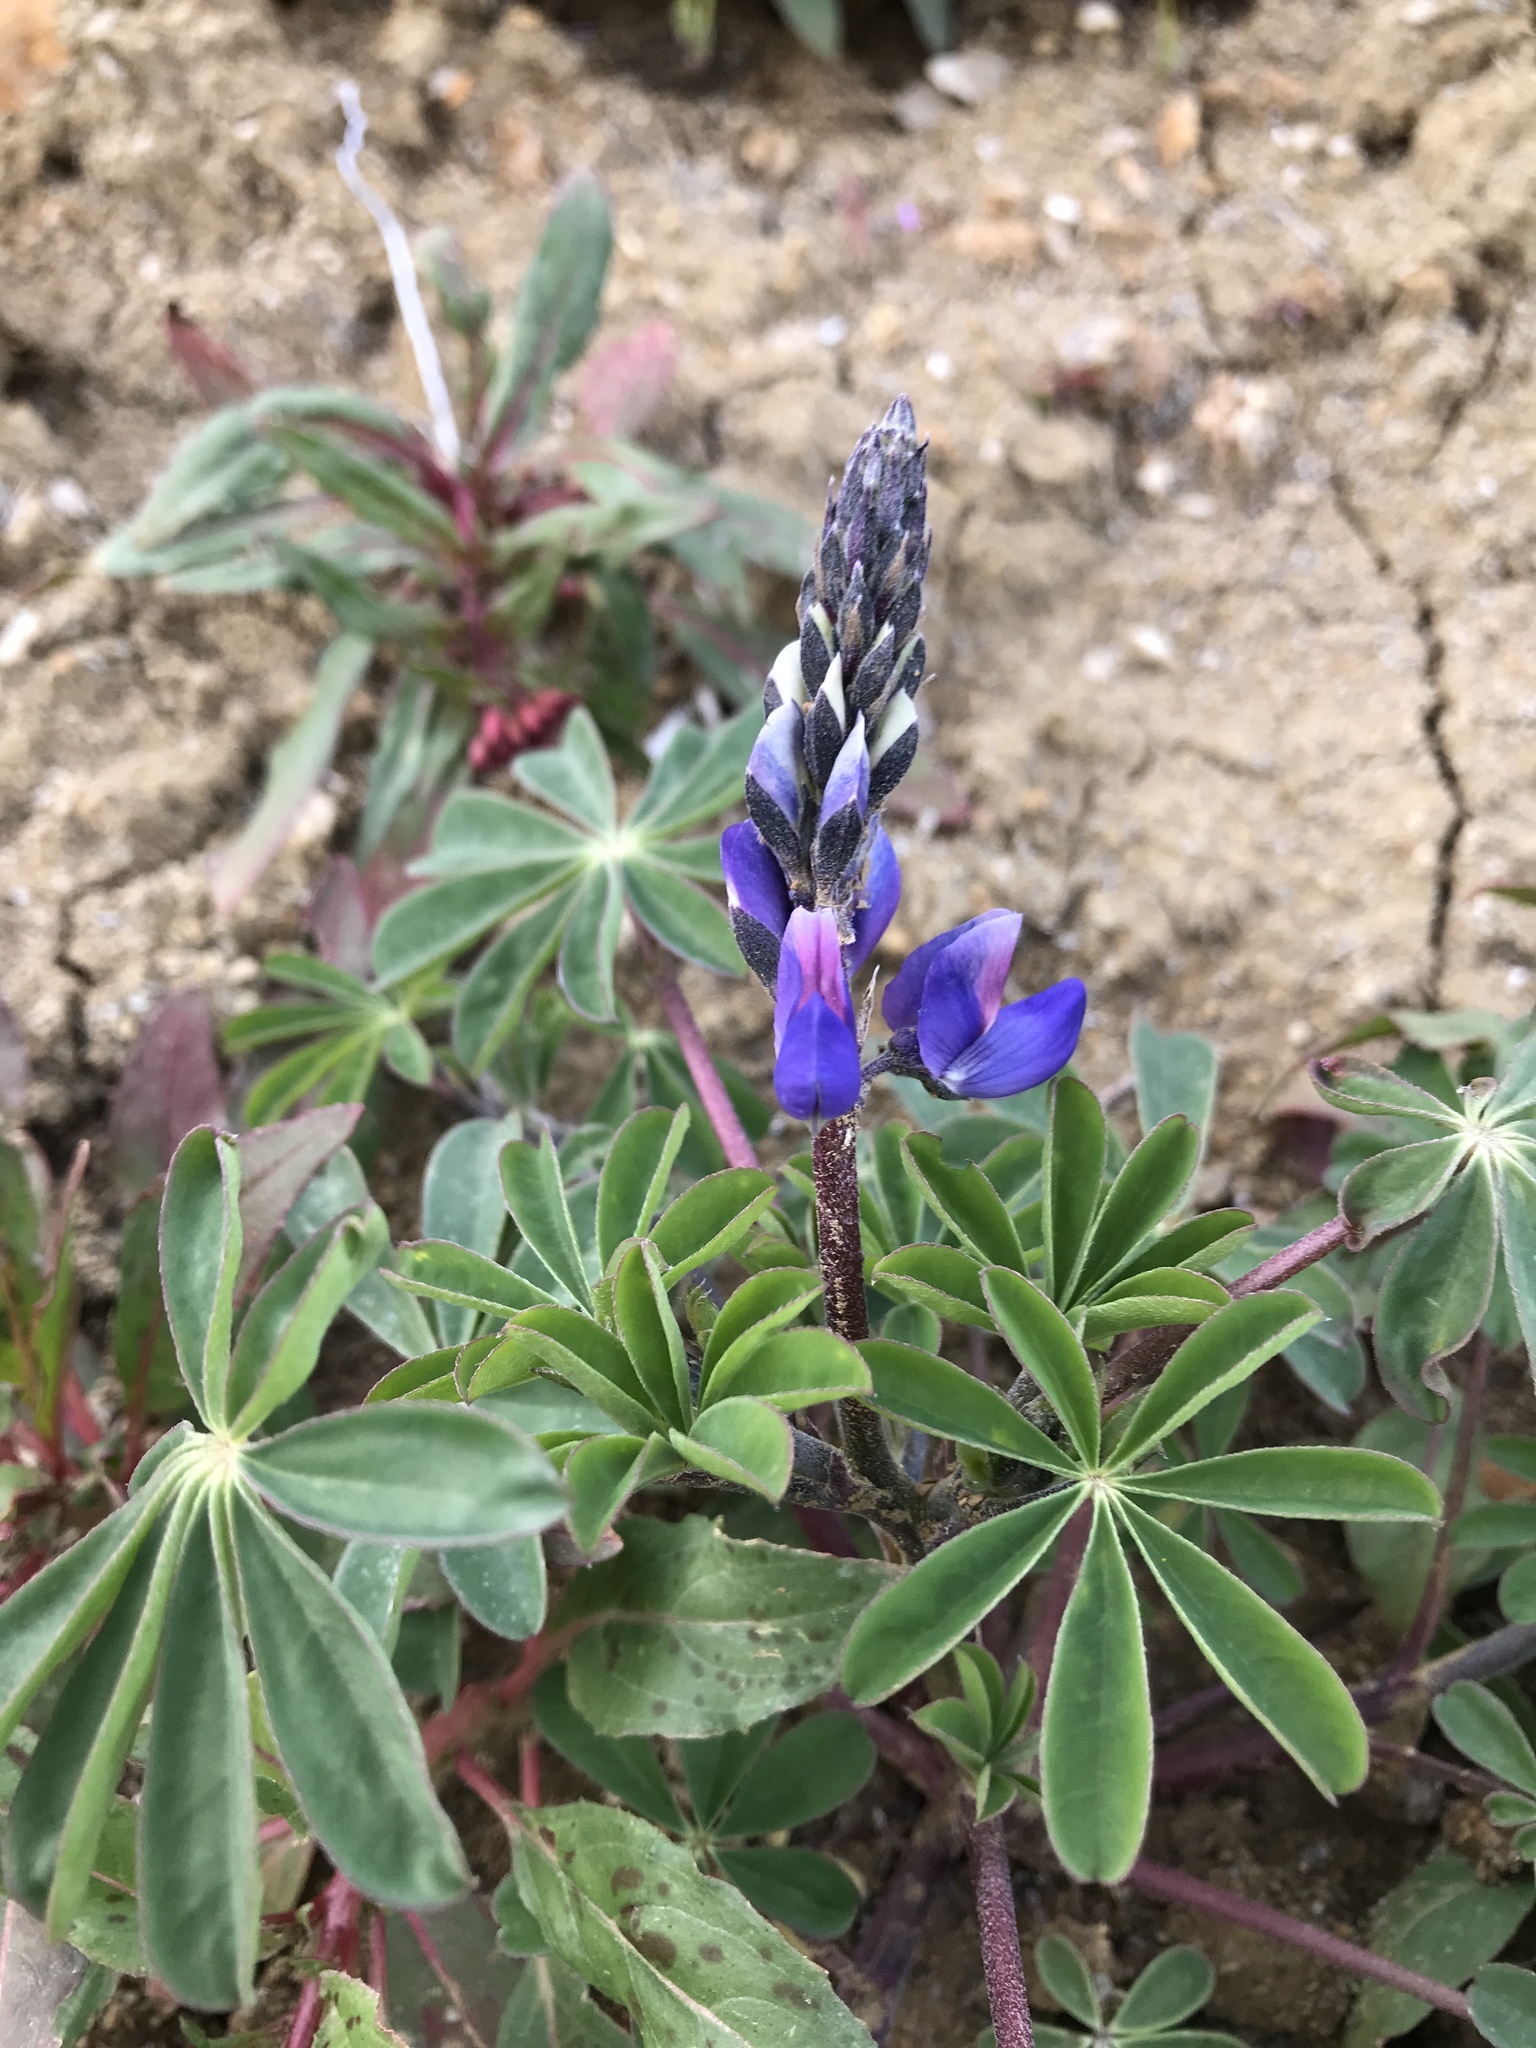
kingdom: Plantae
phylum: Tracheophyta
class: Magnoliopsida
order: Fabales
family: Fabaceae
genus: Lupinus
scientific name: Lupinus succulentus
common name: Arroyo lupine
